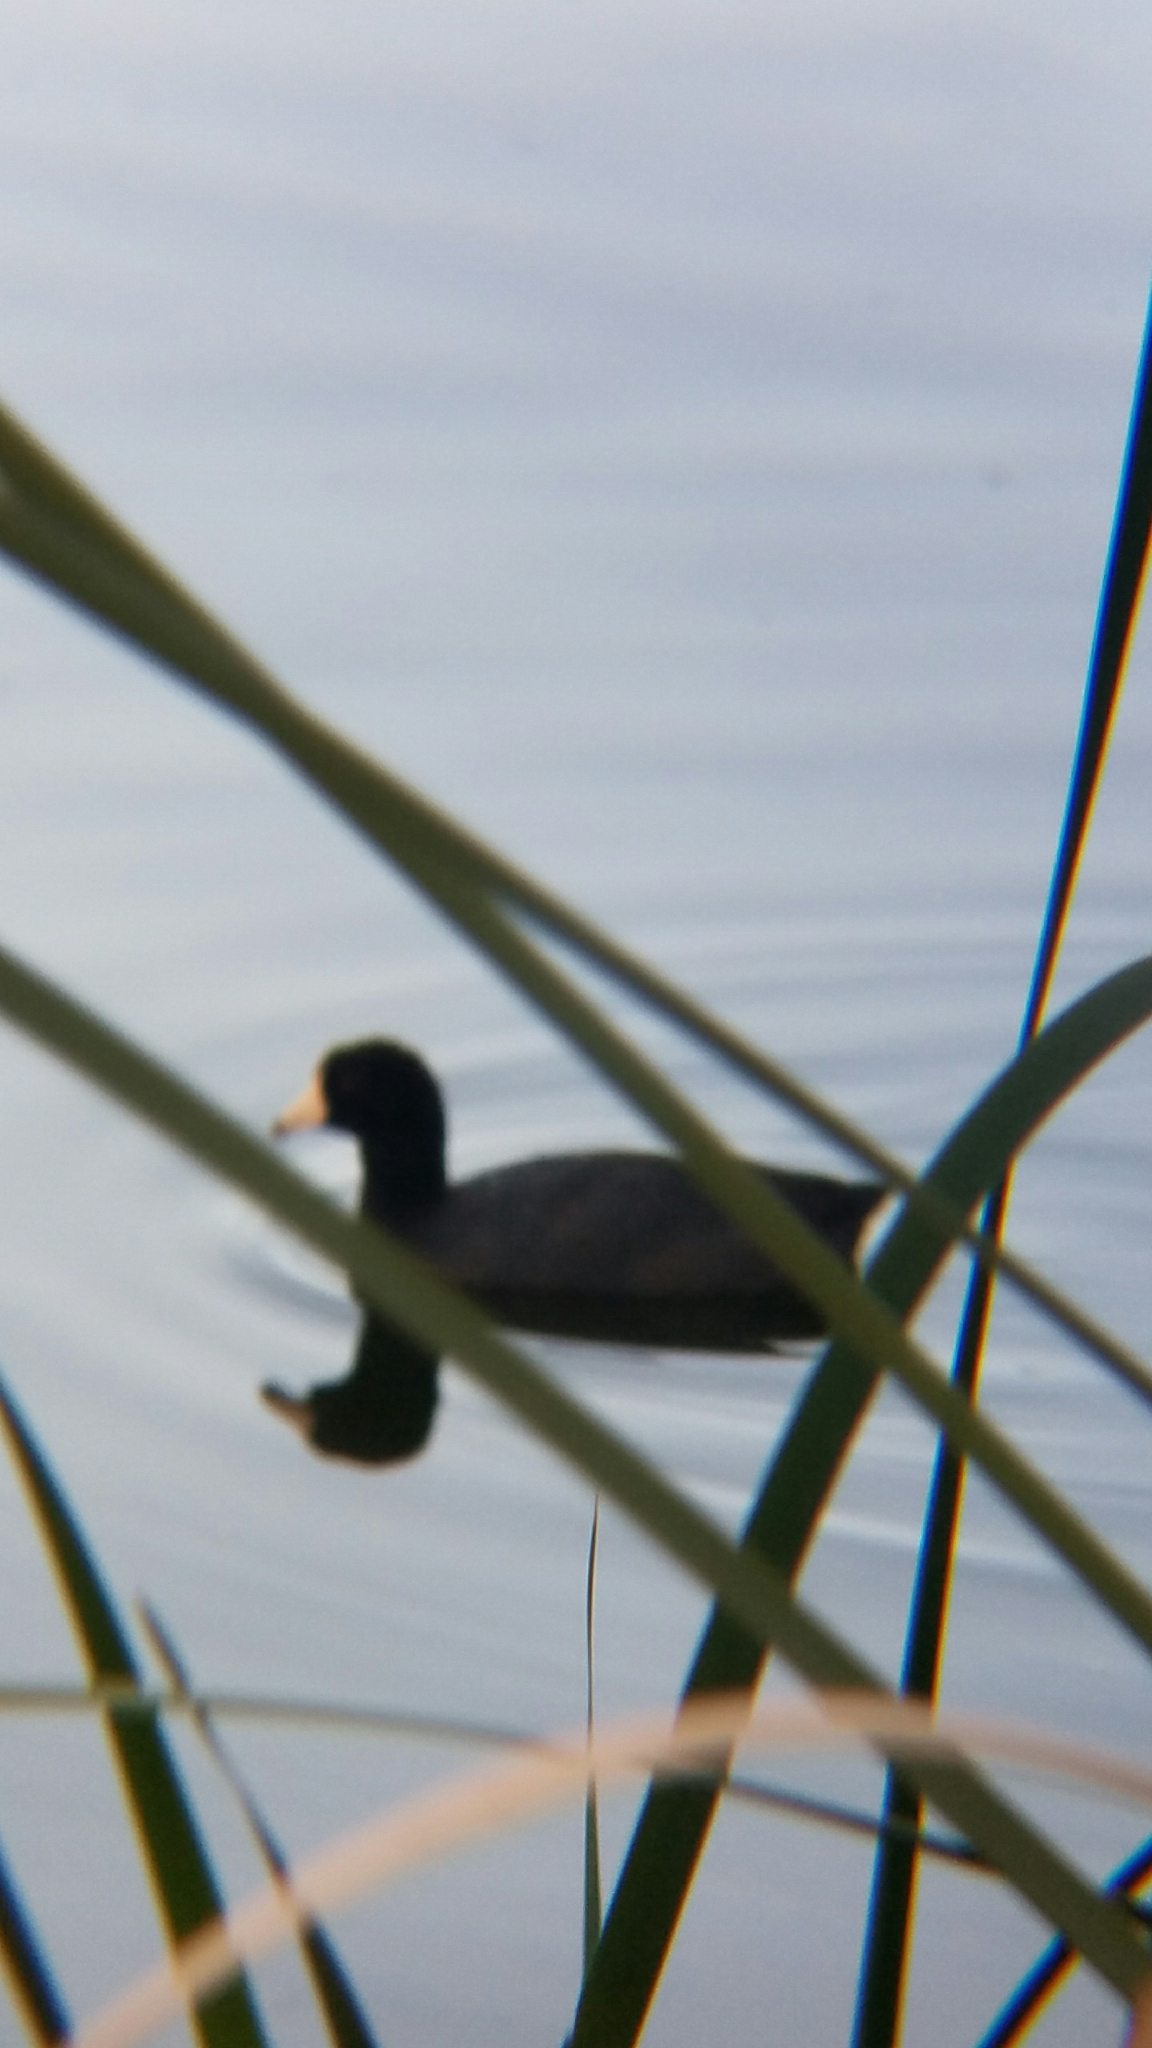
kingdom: Animalia
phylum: Chordata
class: Aves
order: Gruiformes
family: Rallidae
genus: Fulica
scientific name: Fulica americana
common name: American coot
